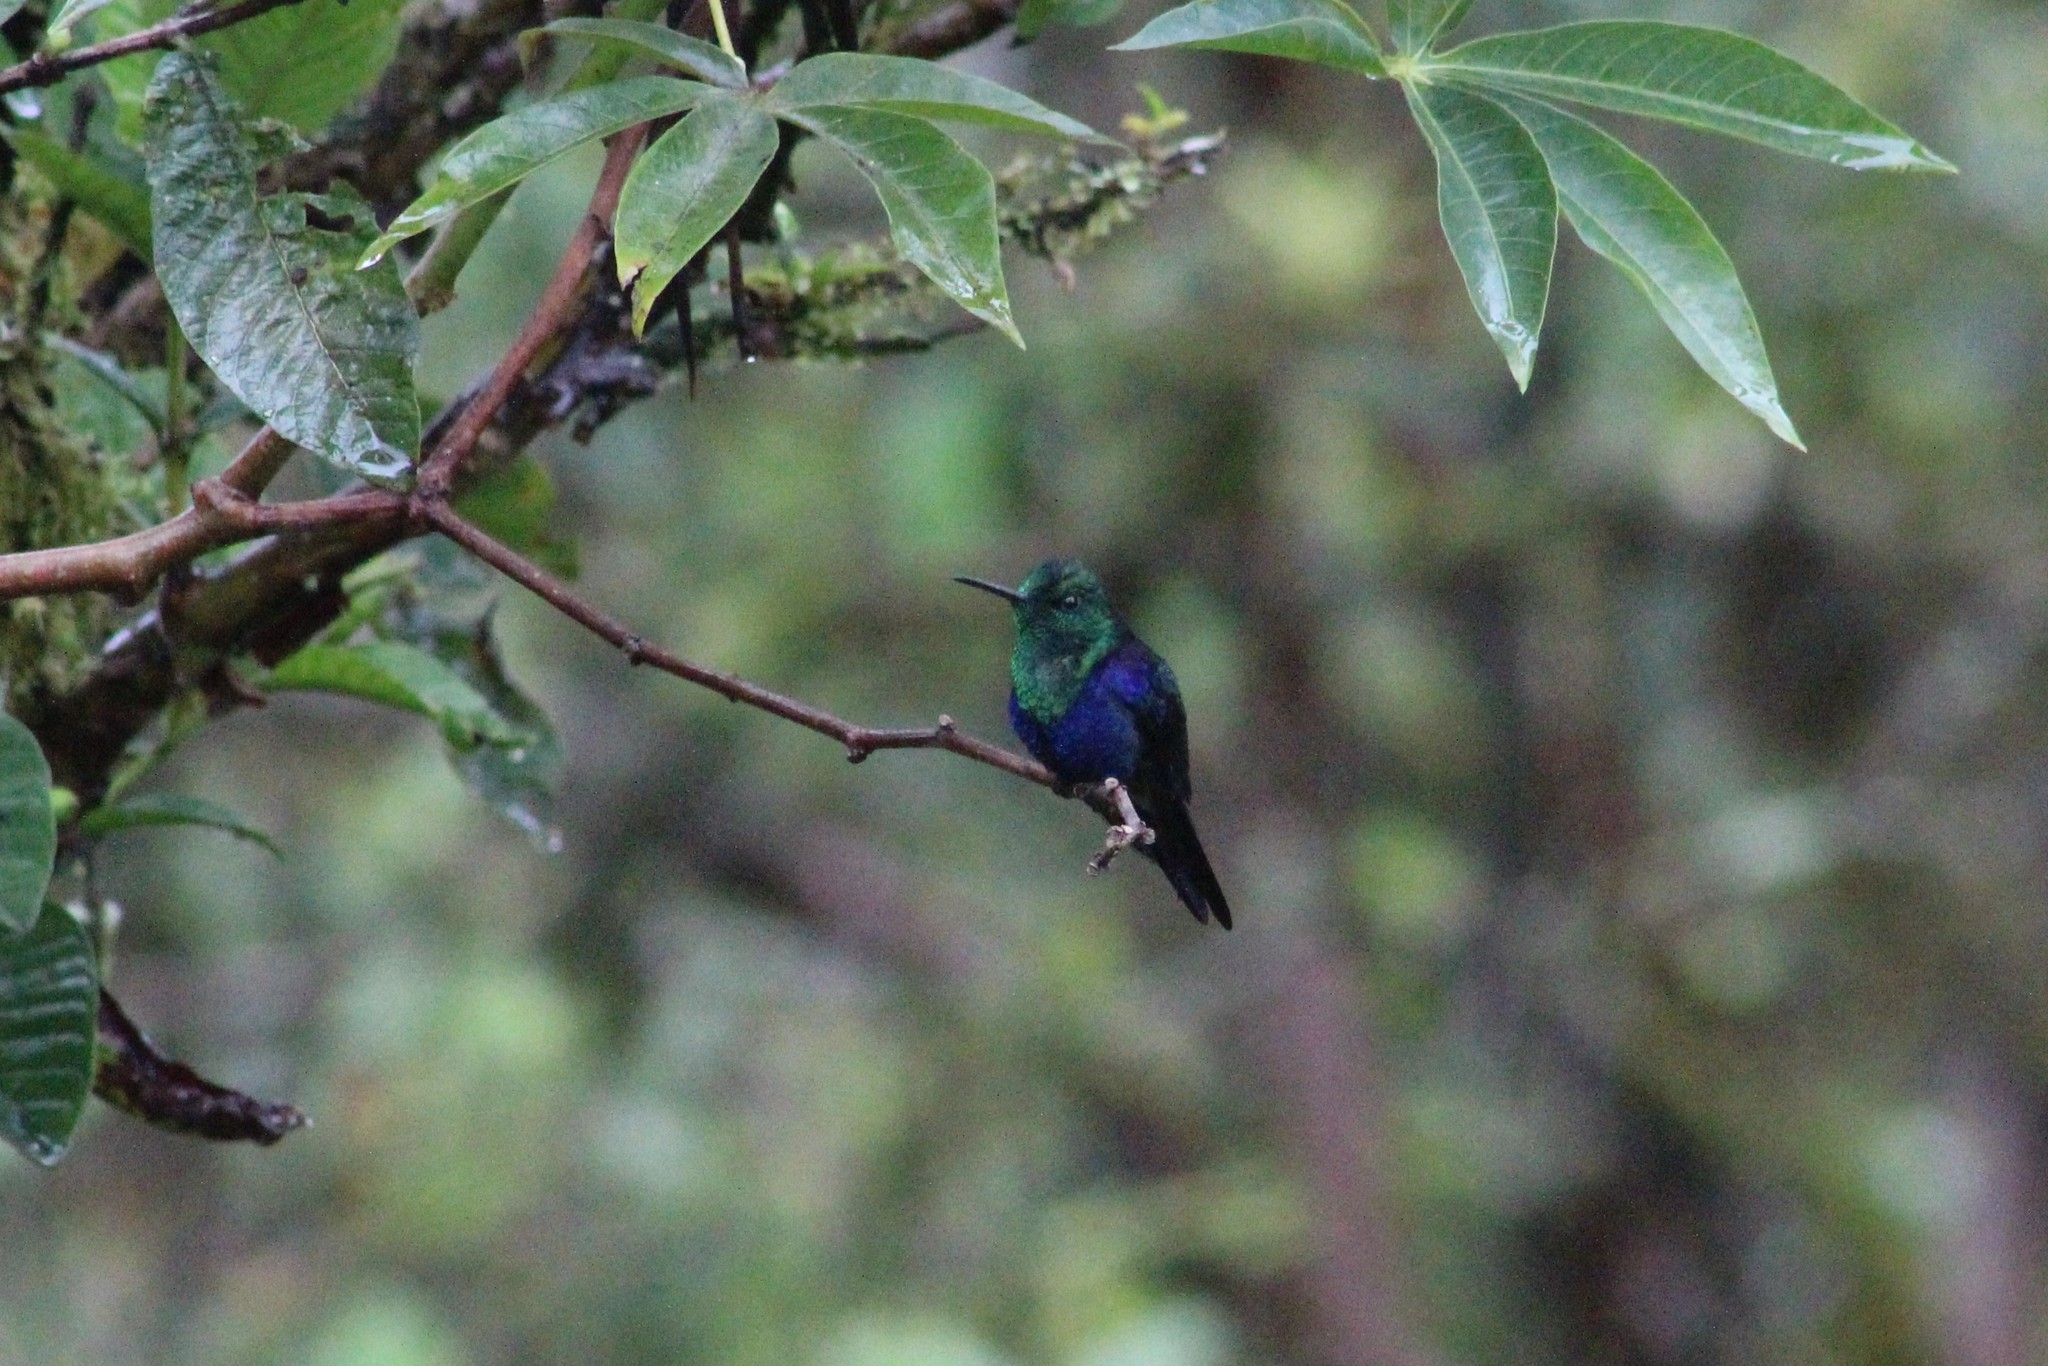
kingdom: Animalia
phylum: Chordata
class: Aves
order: Apodiformes
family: Trochilidae
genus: Thalurania
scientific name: Thalurania colombica
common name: Crowned woodnymph
